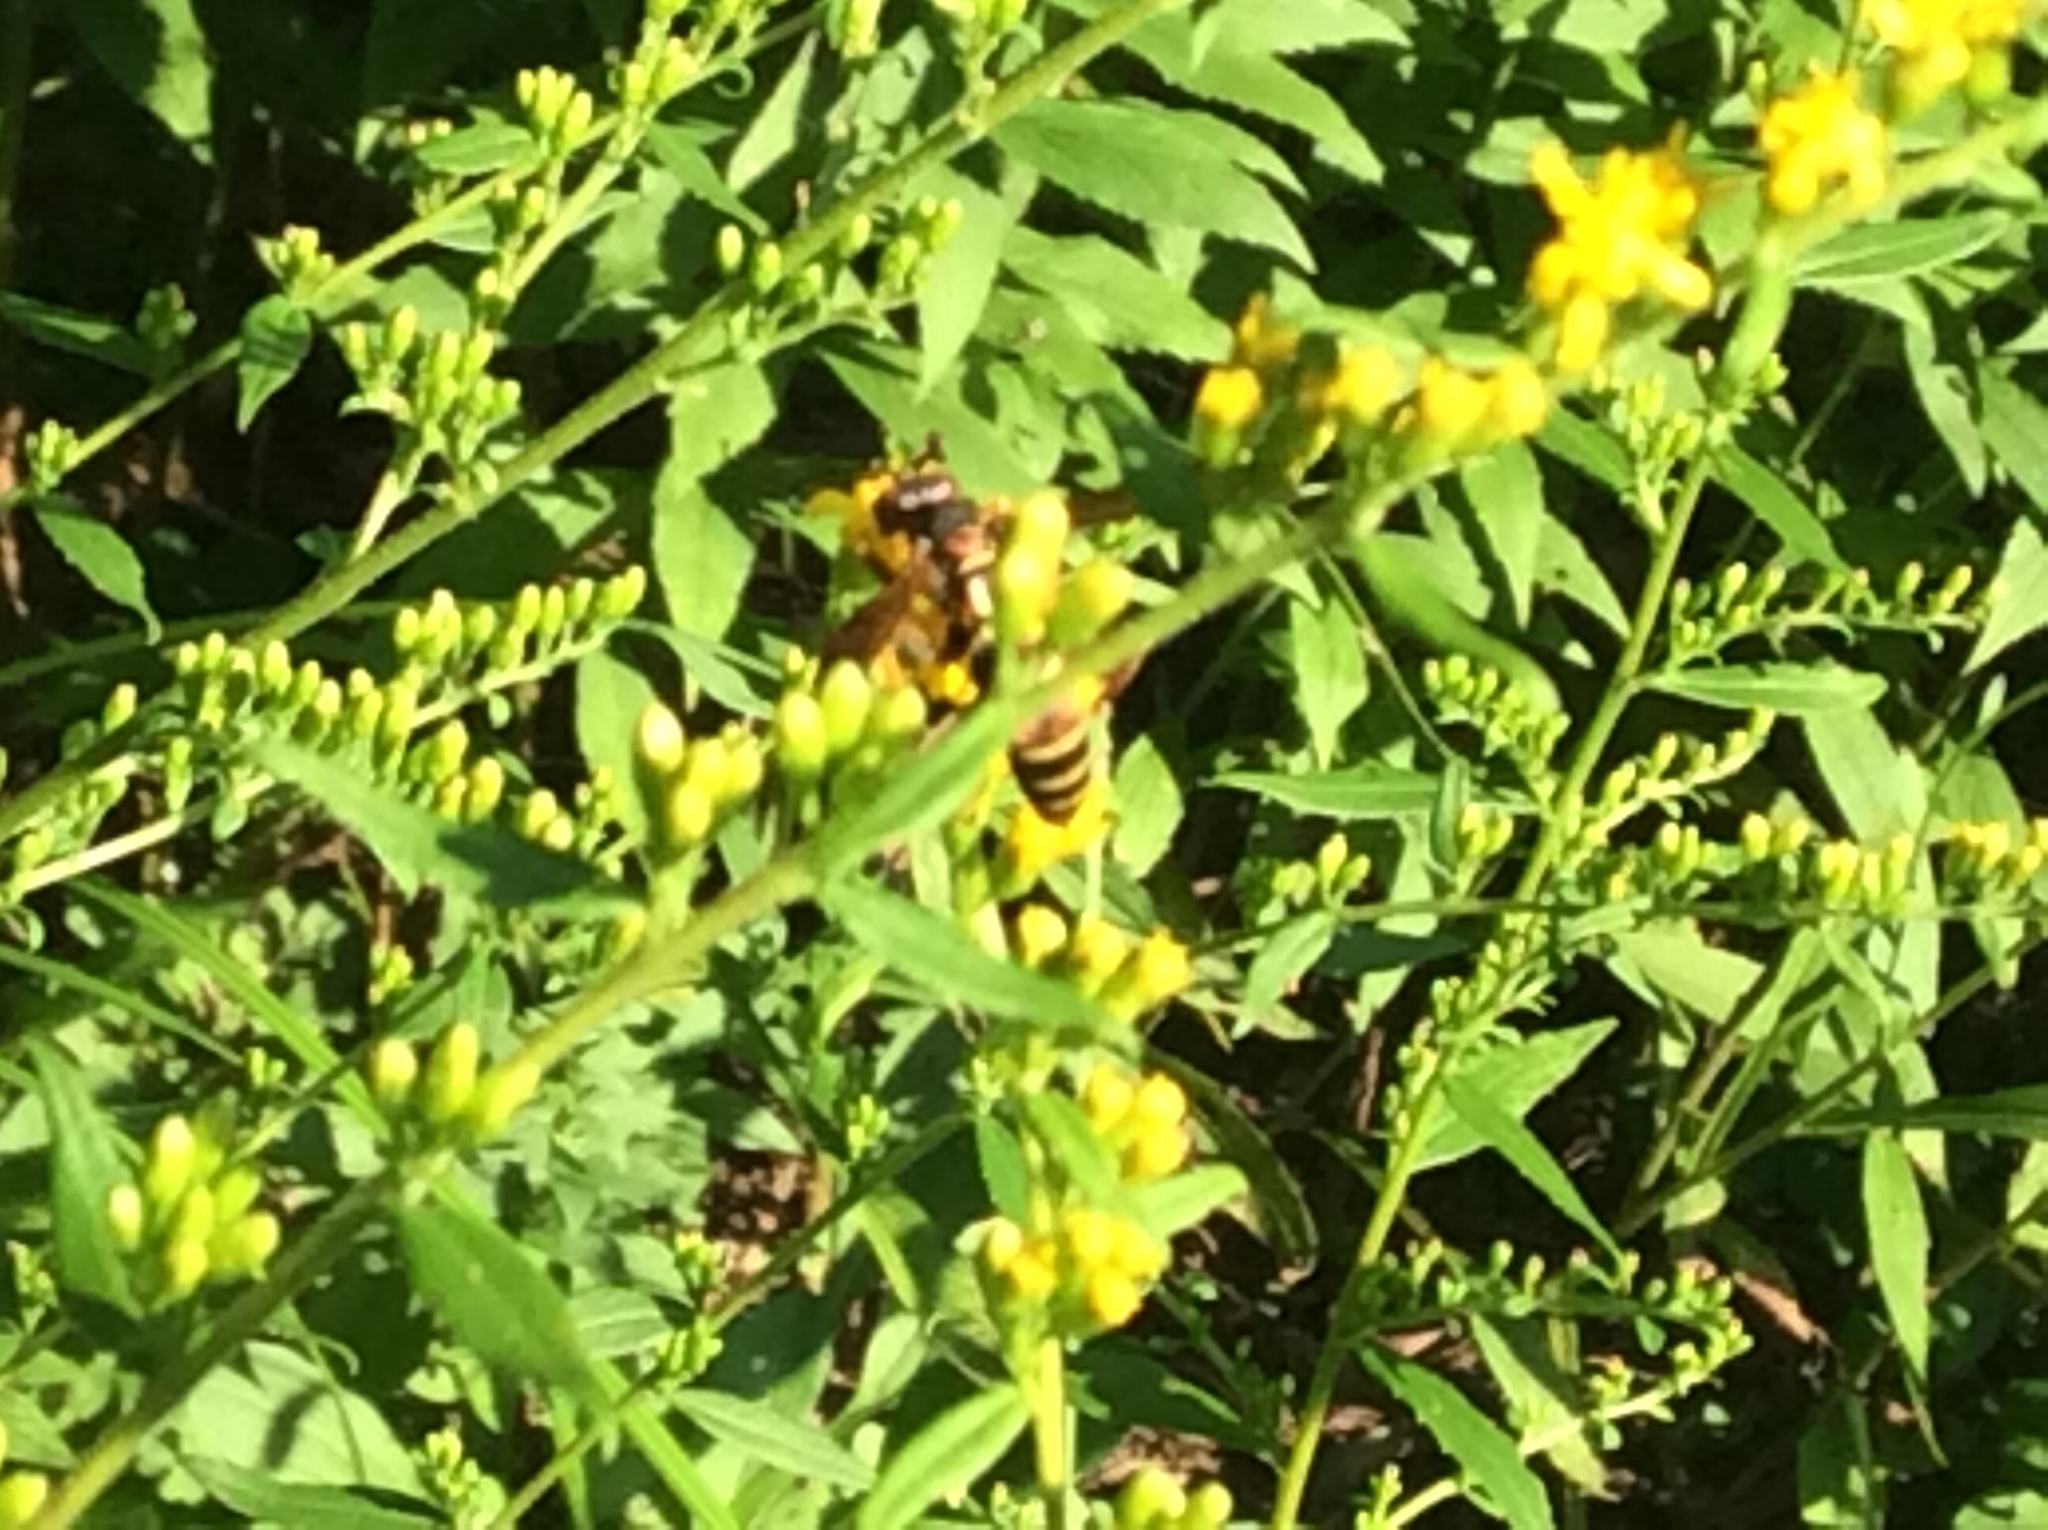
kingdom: Animalia
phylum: Arthropoda
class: Insecta
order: Hymenoptera
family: Vespidae
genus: Fuscopolistes
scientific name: Fuscopolistes
